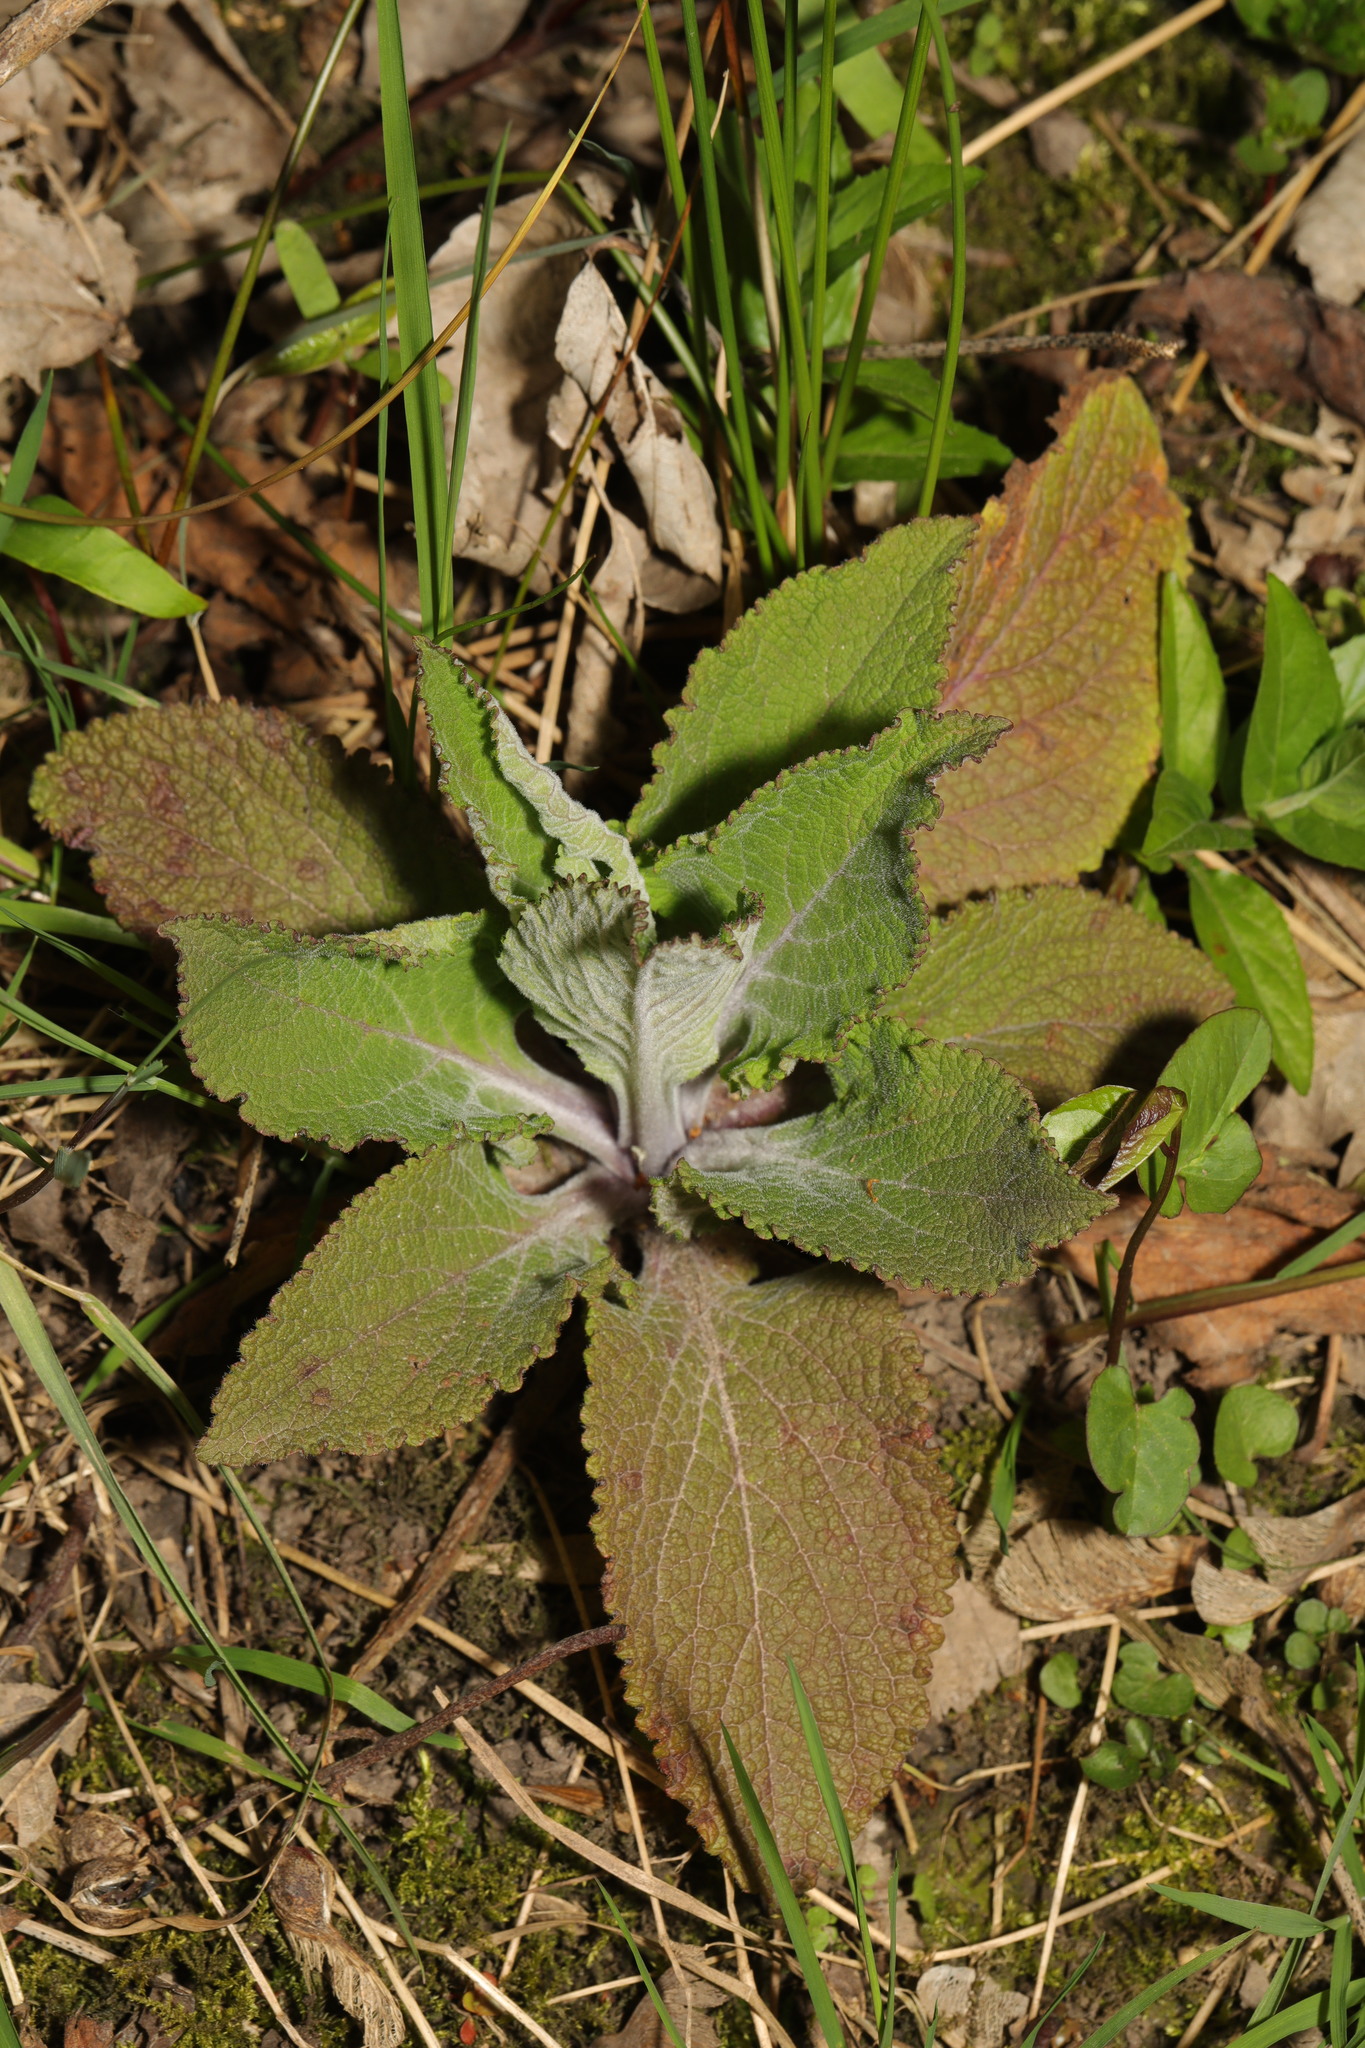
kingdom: Plantae
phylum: Tracheophyta
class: Magnoliopsida
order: Lamiales
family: Plantaginaceae
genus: Digitalis
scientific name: Digitalis purpurea
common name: Foxglove
